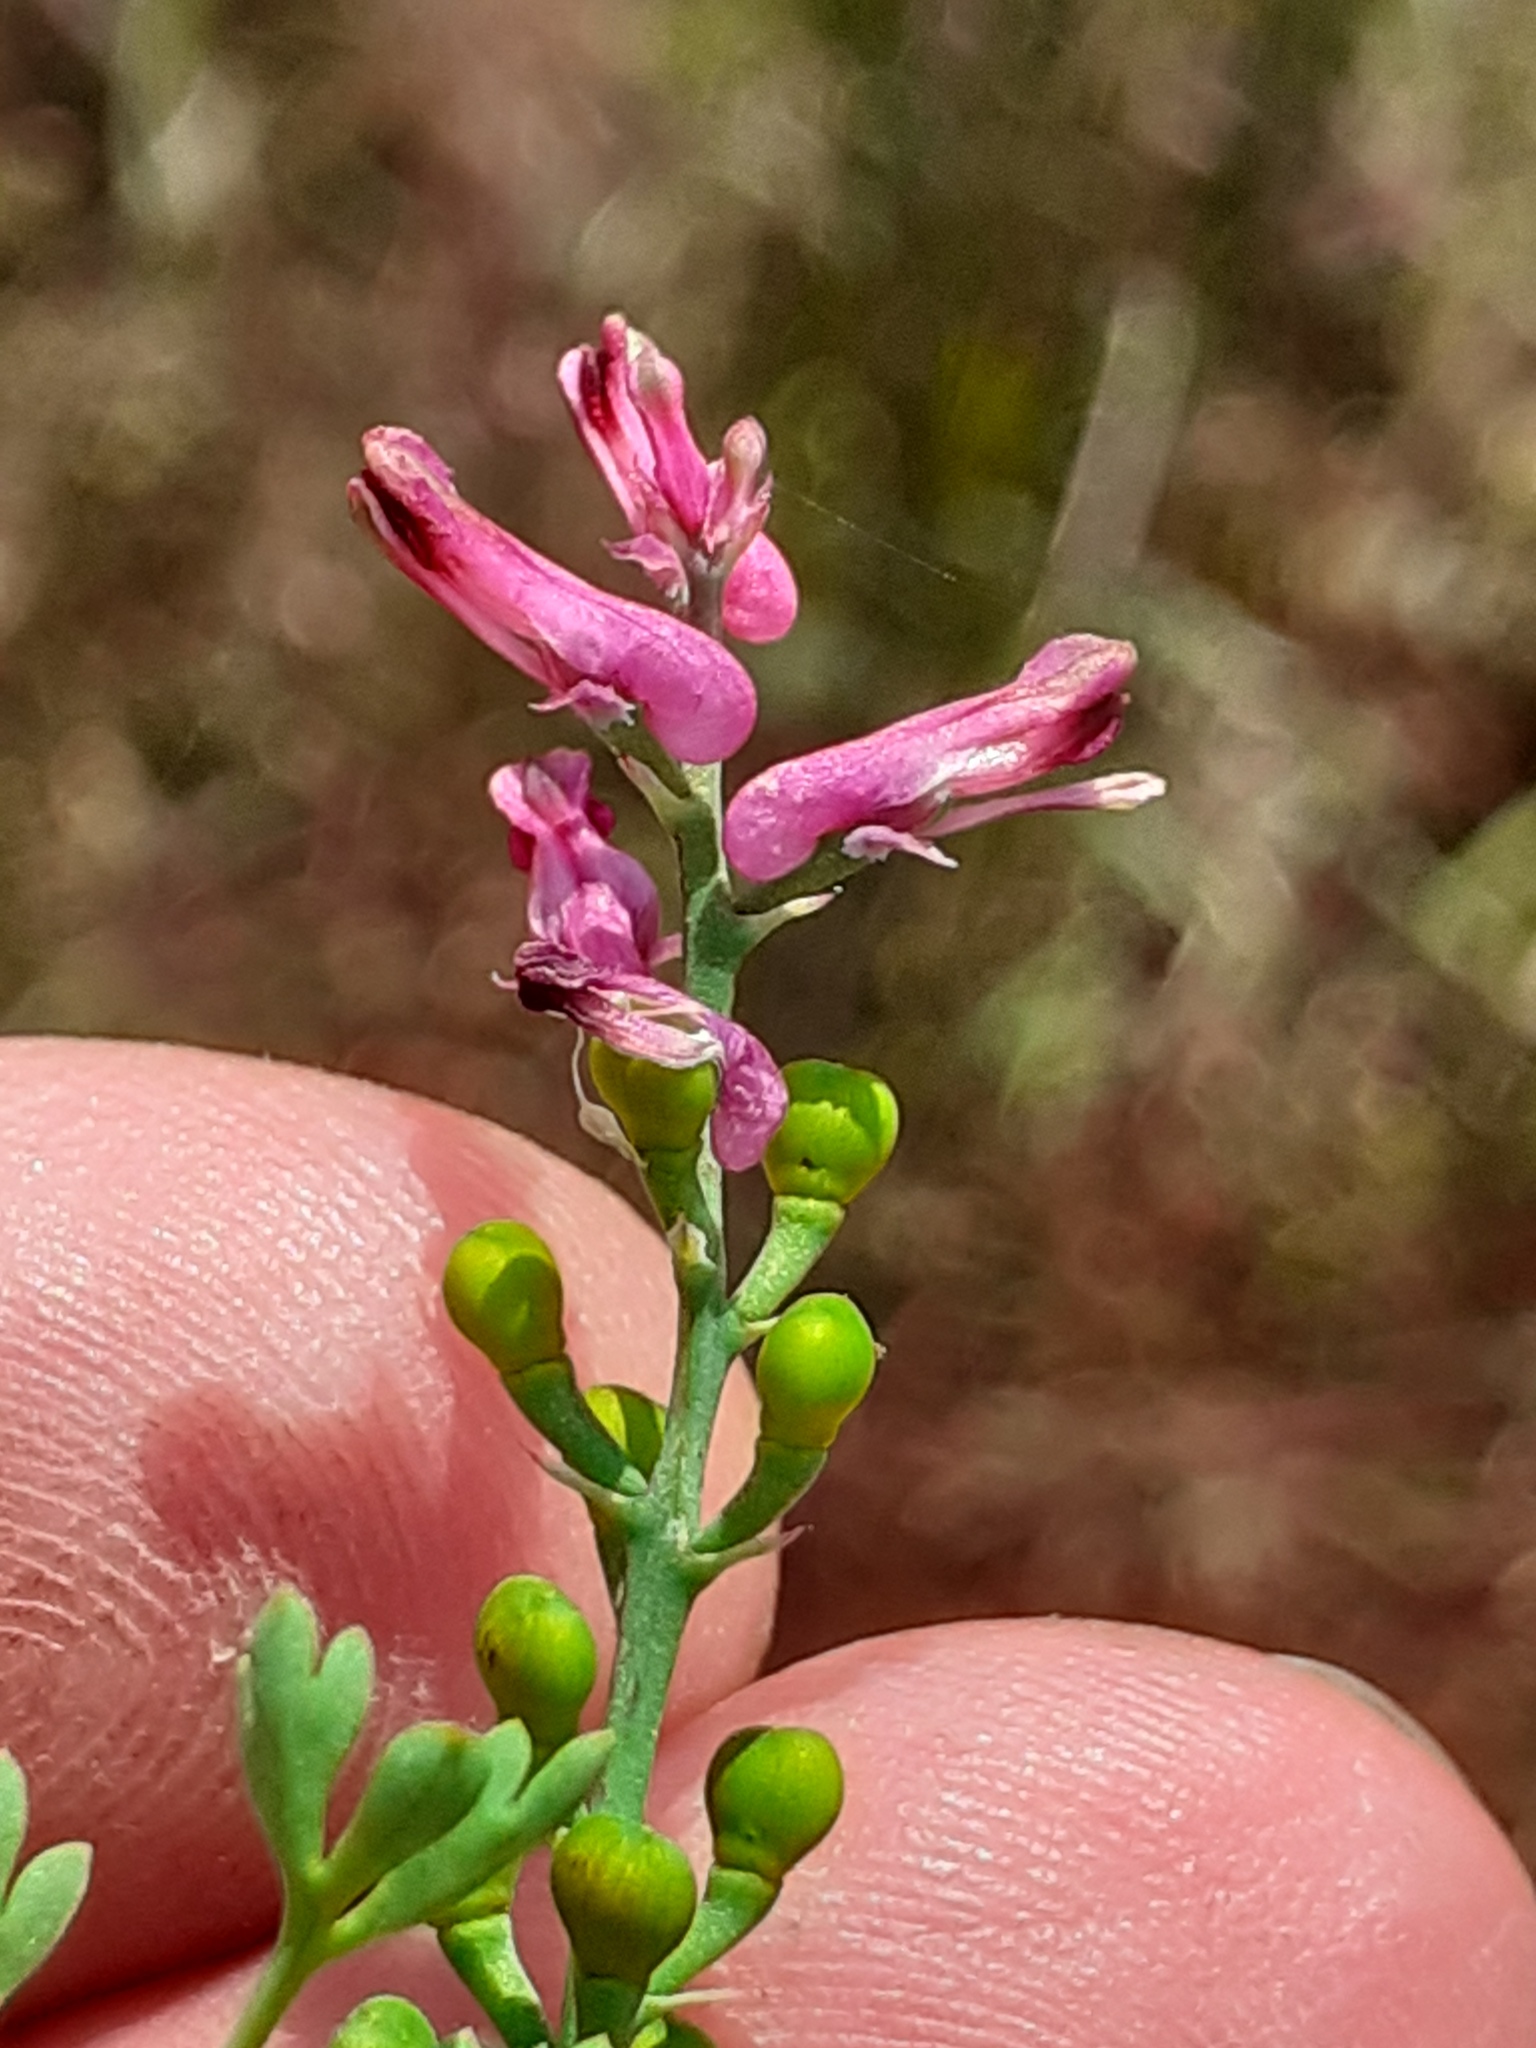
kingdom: Plantae
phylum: Tracheophyta
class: Magnoliopsida
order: Ranunculales
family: Papaveraceae
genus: Fumaria
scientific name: Fumaria officinalis
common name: Common fumitory
